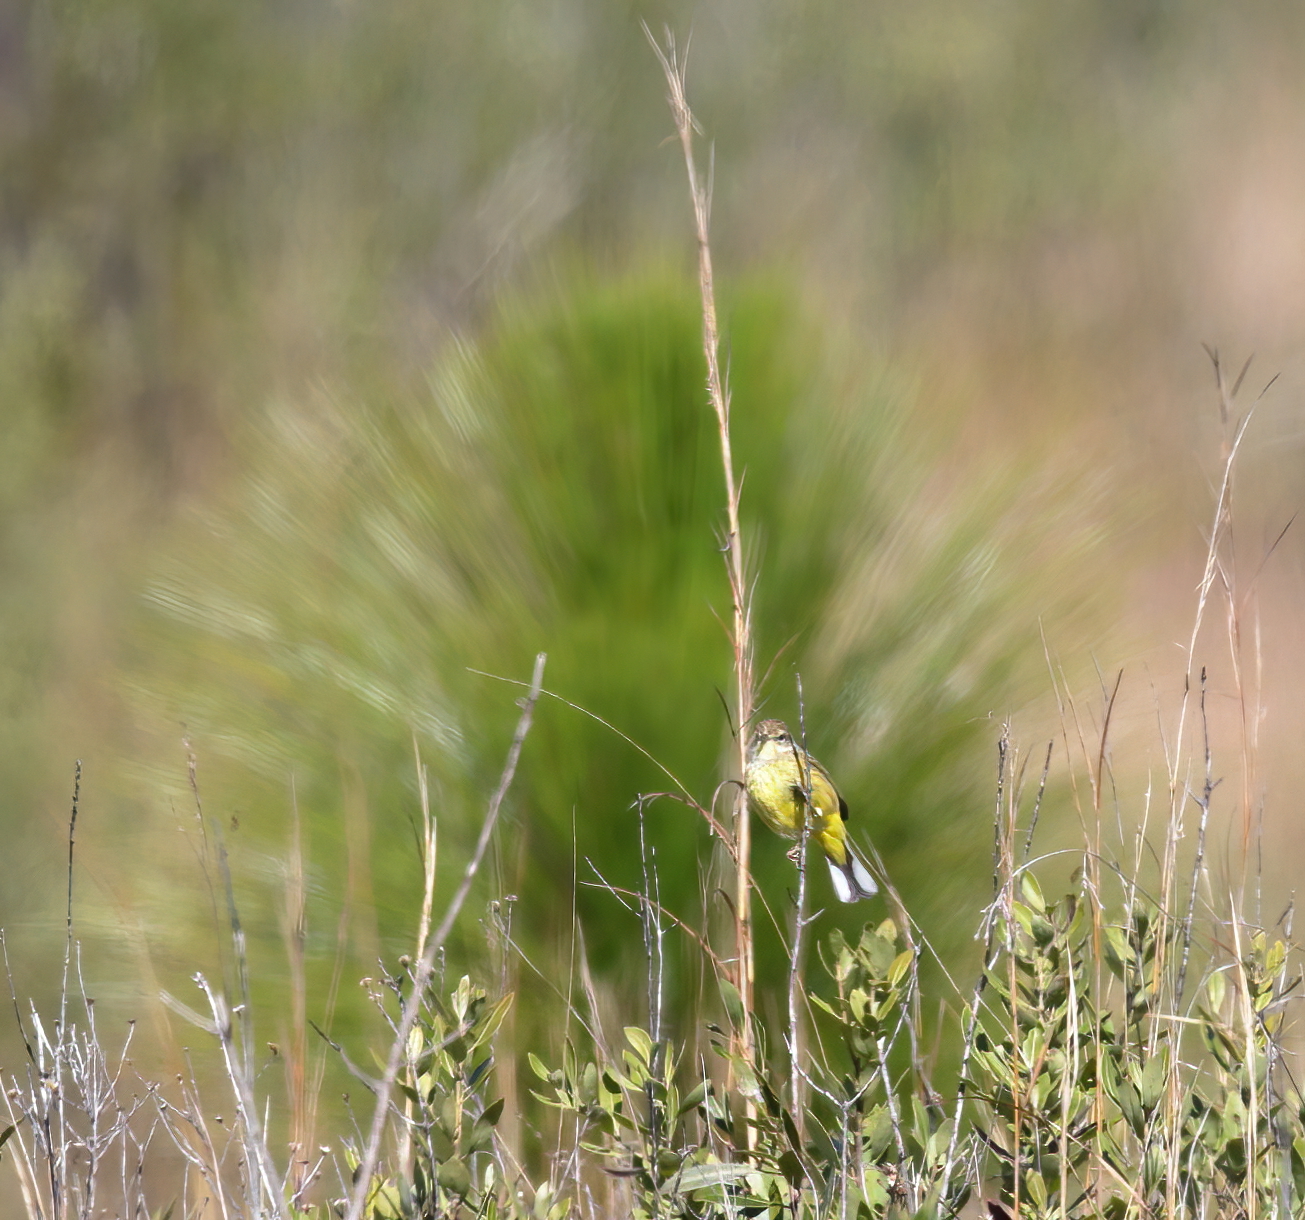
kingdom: Animalia
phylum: Chordata
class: Aves
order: Passeriformes
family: Parulidae
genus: Setophaga
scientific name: Setophaga palmarum
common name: Palm warbler
